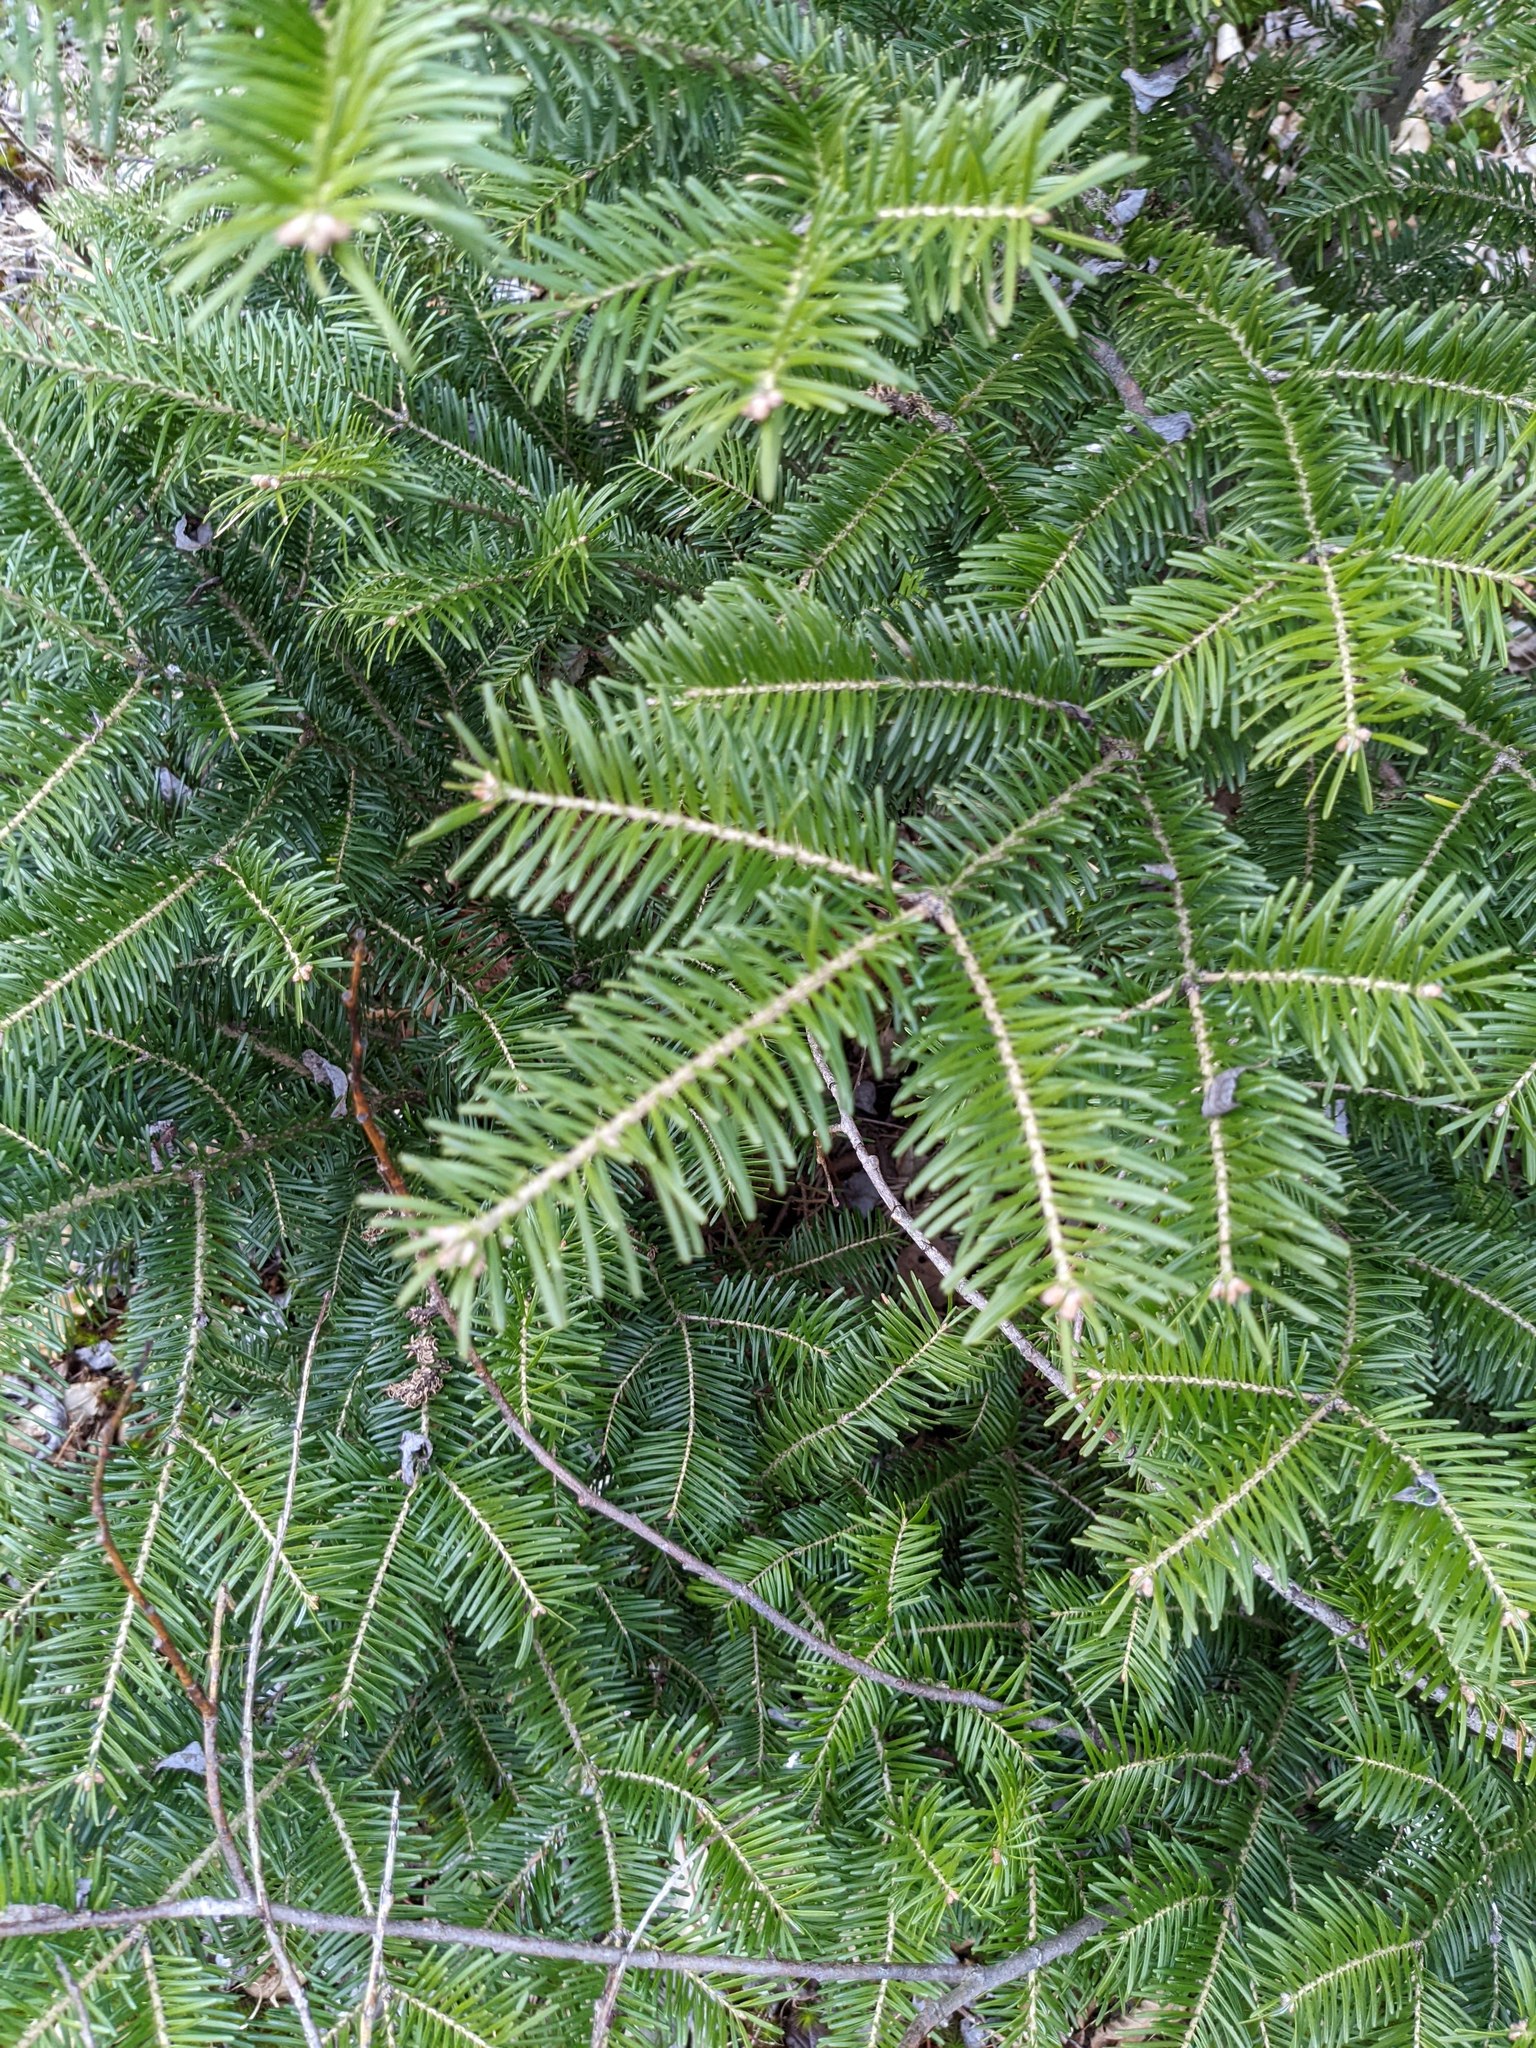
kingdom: Plantae
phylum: Tracheophyta
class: Pinopsida
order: Pinales
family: Pinaceae
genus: Abies
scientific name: Abies balsamea
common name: Balsam fir
